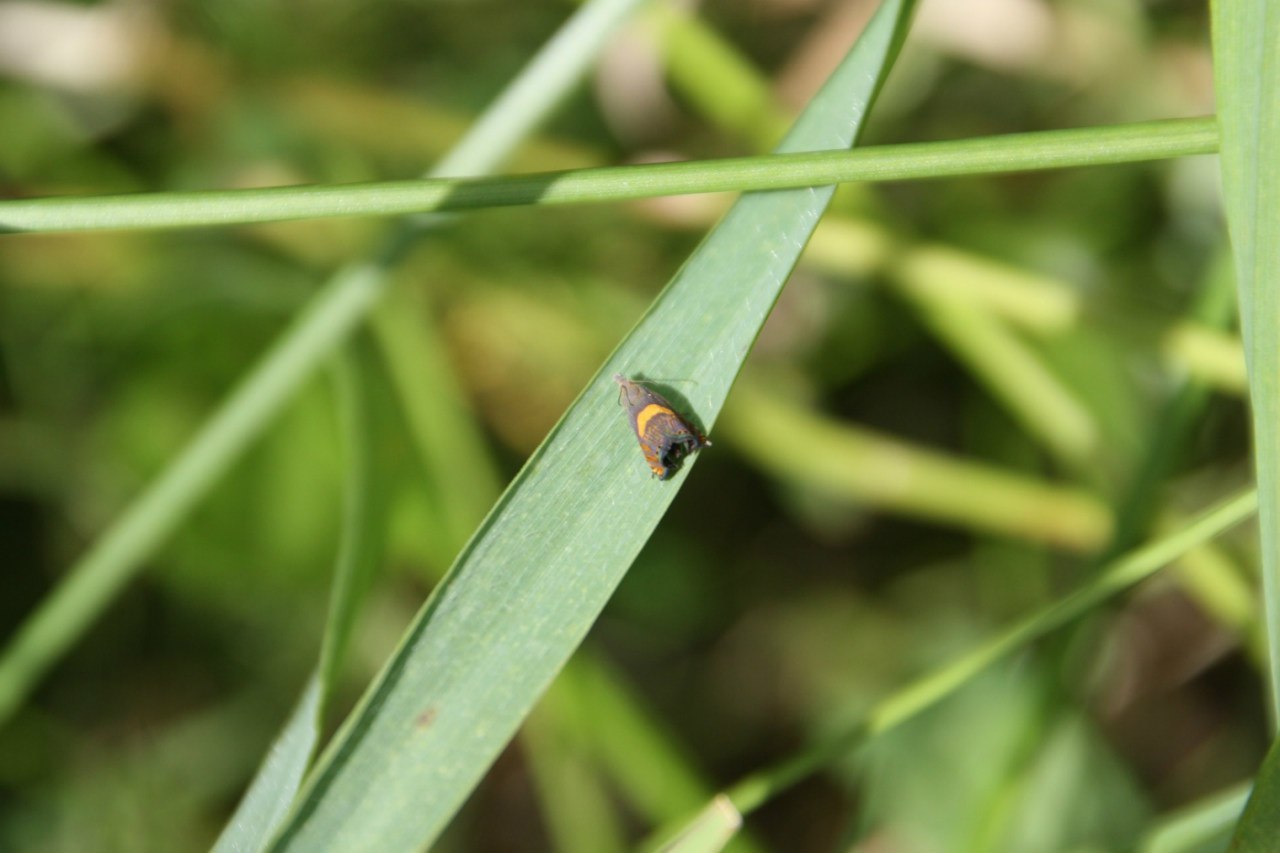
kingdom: Animalia
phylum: Arthropoda
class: Insecta
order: Lepidoptera
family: Tortricidae
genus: Dichrorampha
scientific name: Dichrorampha flavidorsana
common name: Narrow-blotch drill
